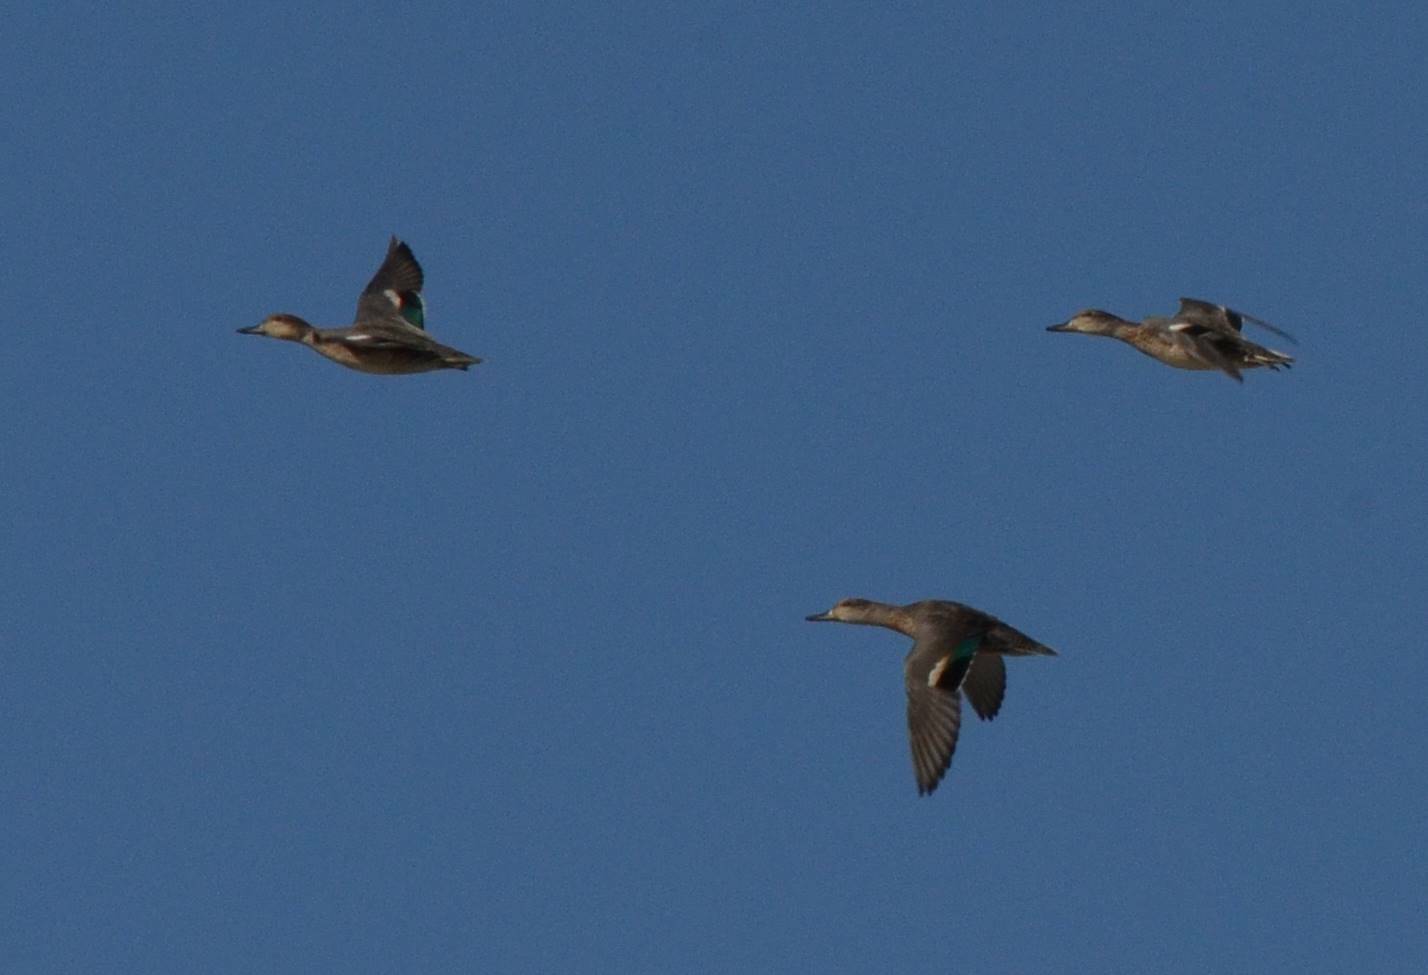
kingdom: Animalia
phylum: Chordata
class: Aves
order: Anseriformes
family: Anatidae
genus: Anas
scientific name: Anas crecca
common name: Eurasian teal
